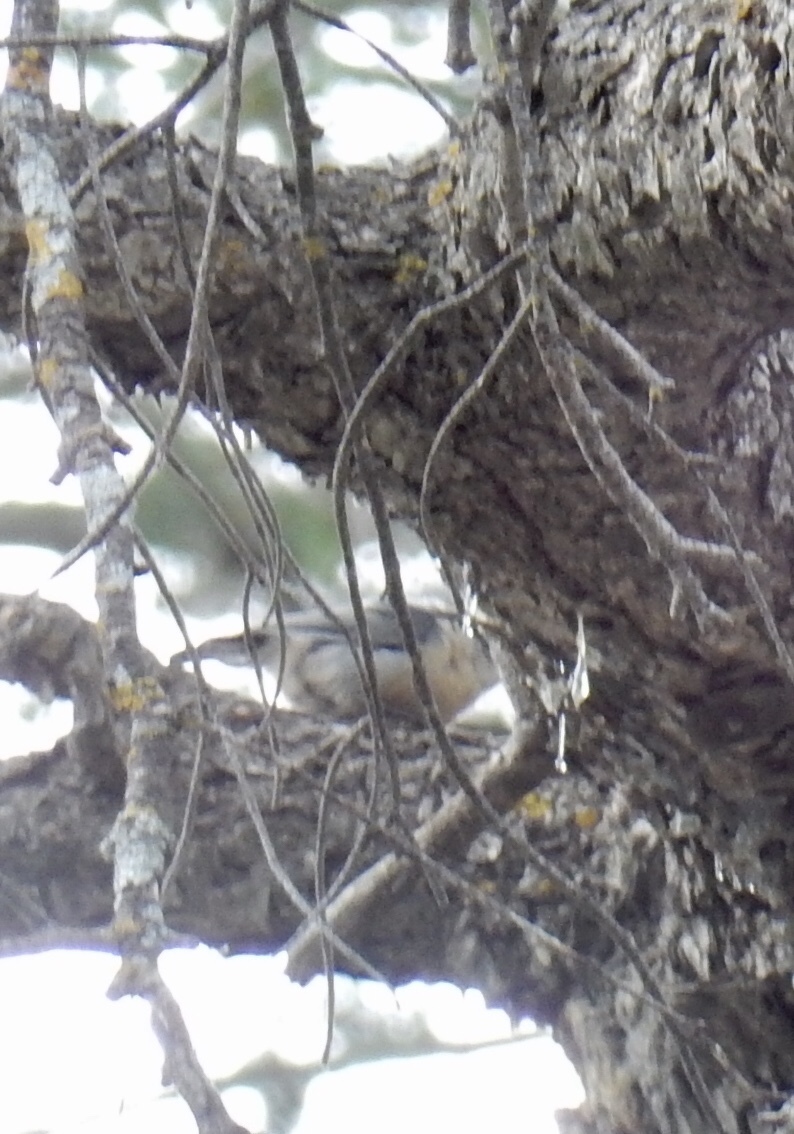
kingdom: Animalia
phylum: Chordata
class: Aves
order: Passeriformes
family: Sittidae
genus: Sitta
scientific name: Sitta carolinensis
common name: White-breasted nuthatch
